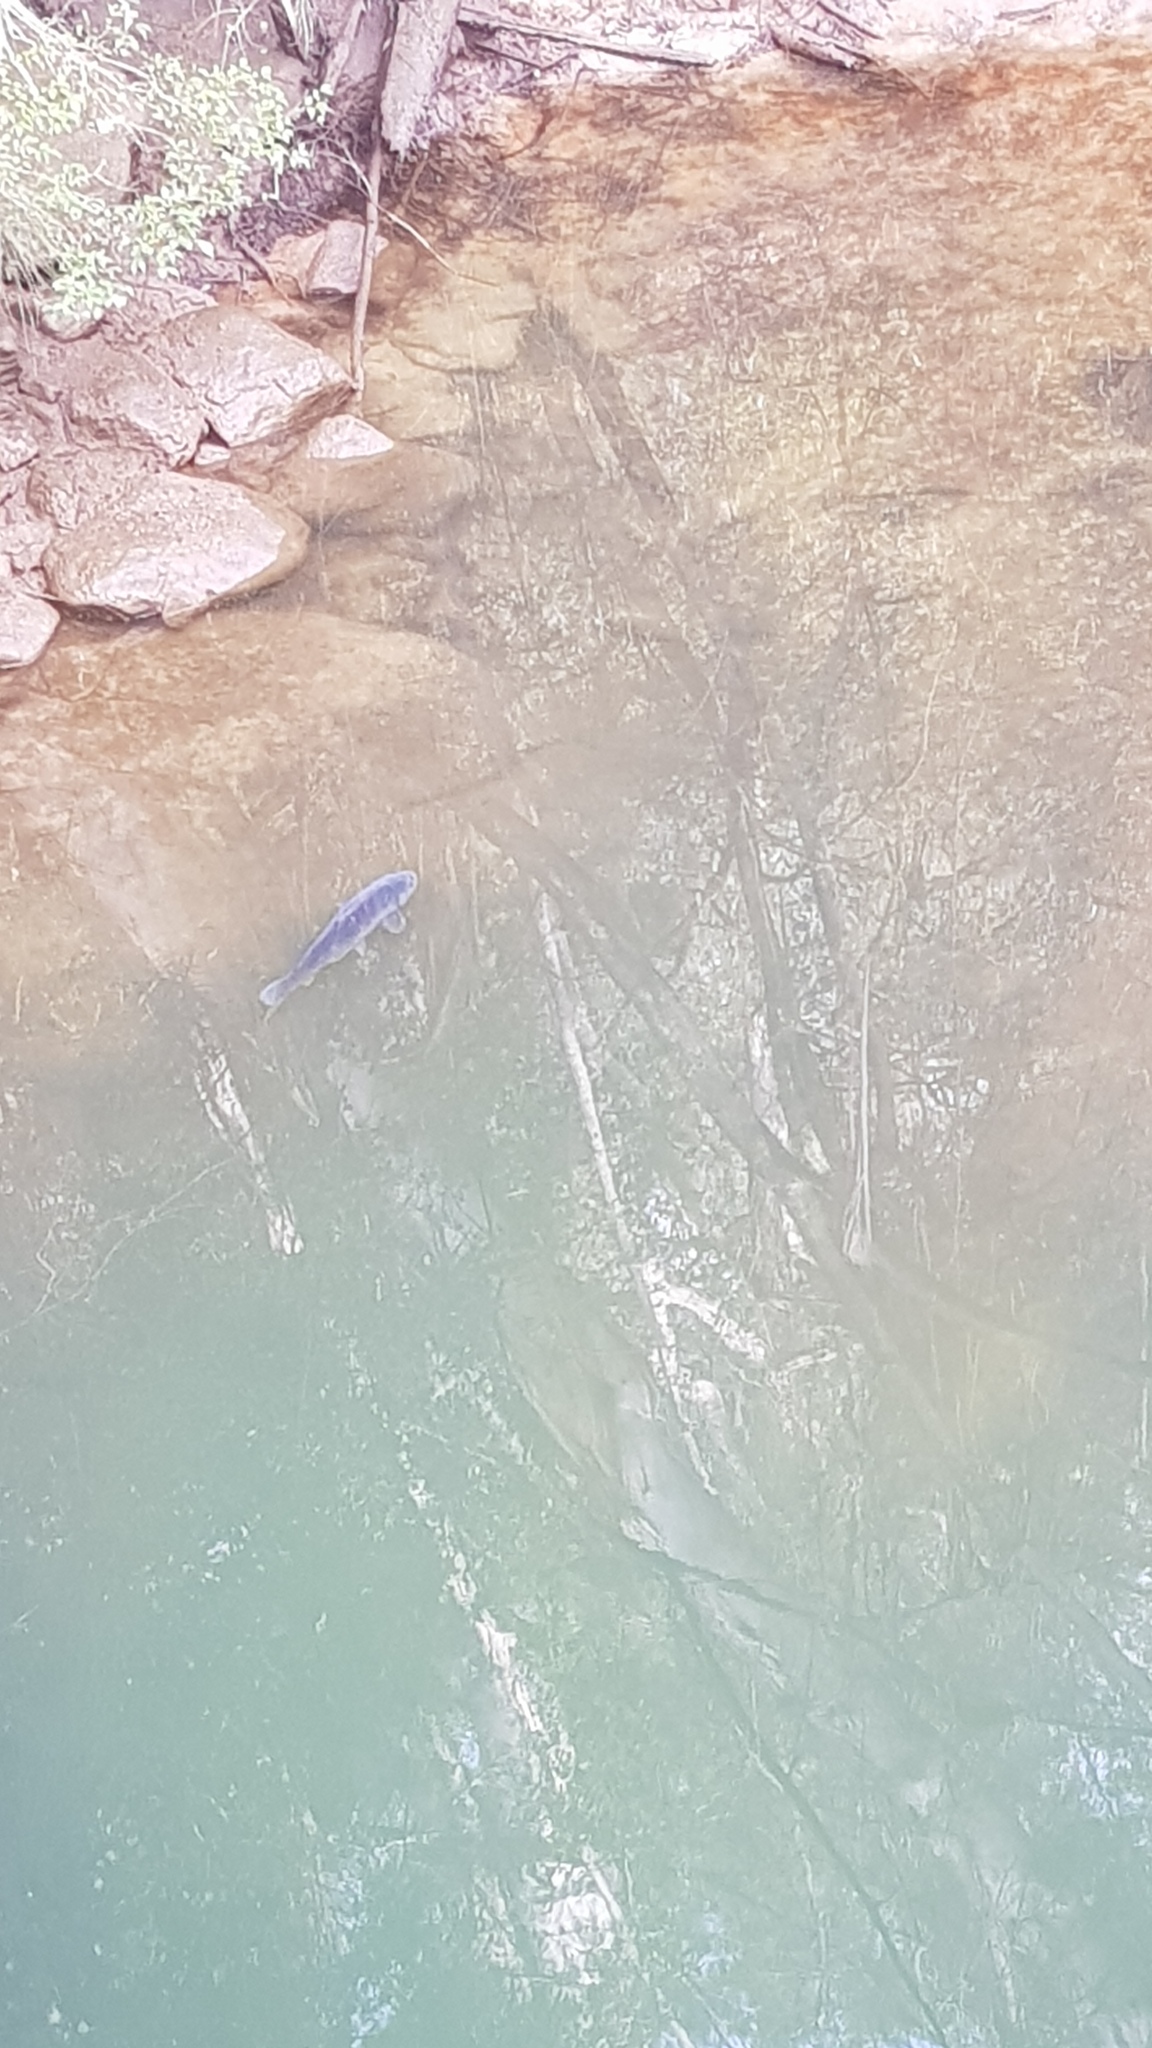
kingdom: Animalia
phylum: Chordata
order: Cypriniformes
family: Cyprinidae
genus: Cyprinus
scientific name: Cyprinus carpio
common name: Common carp
